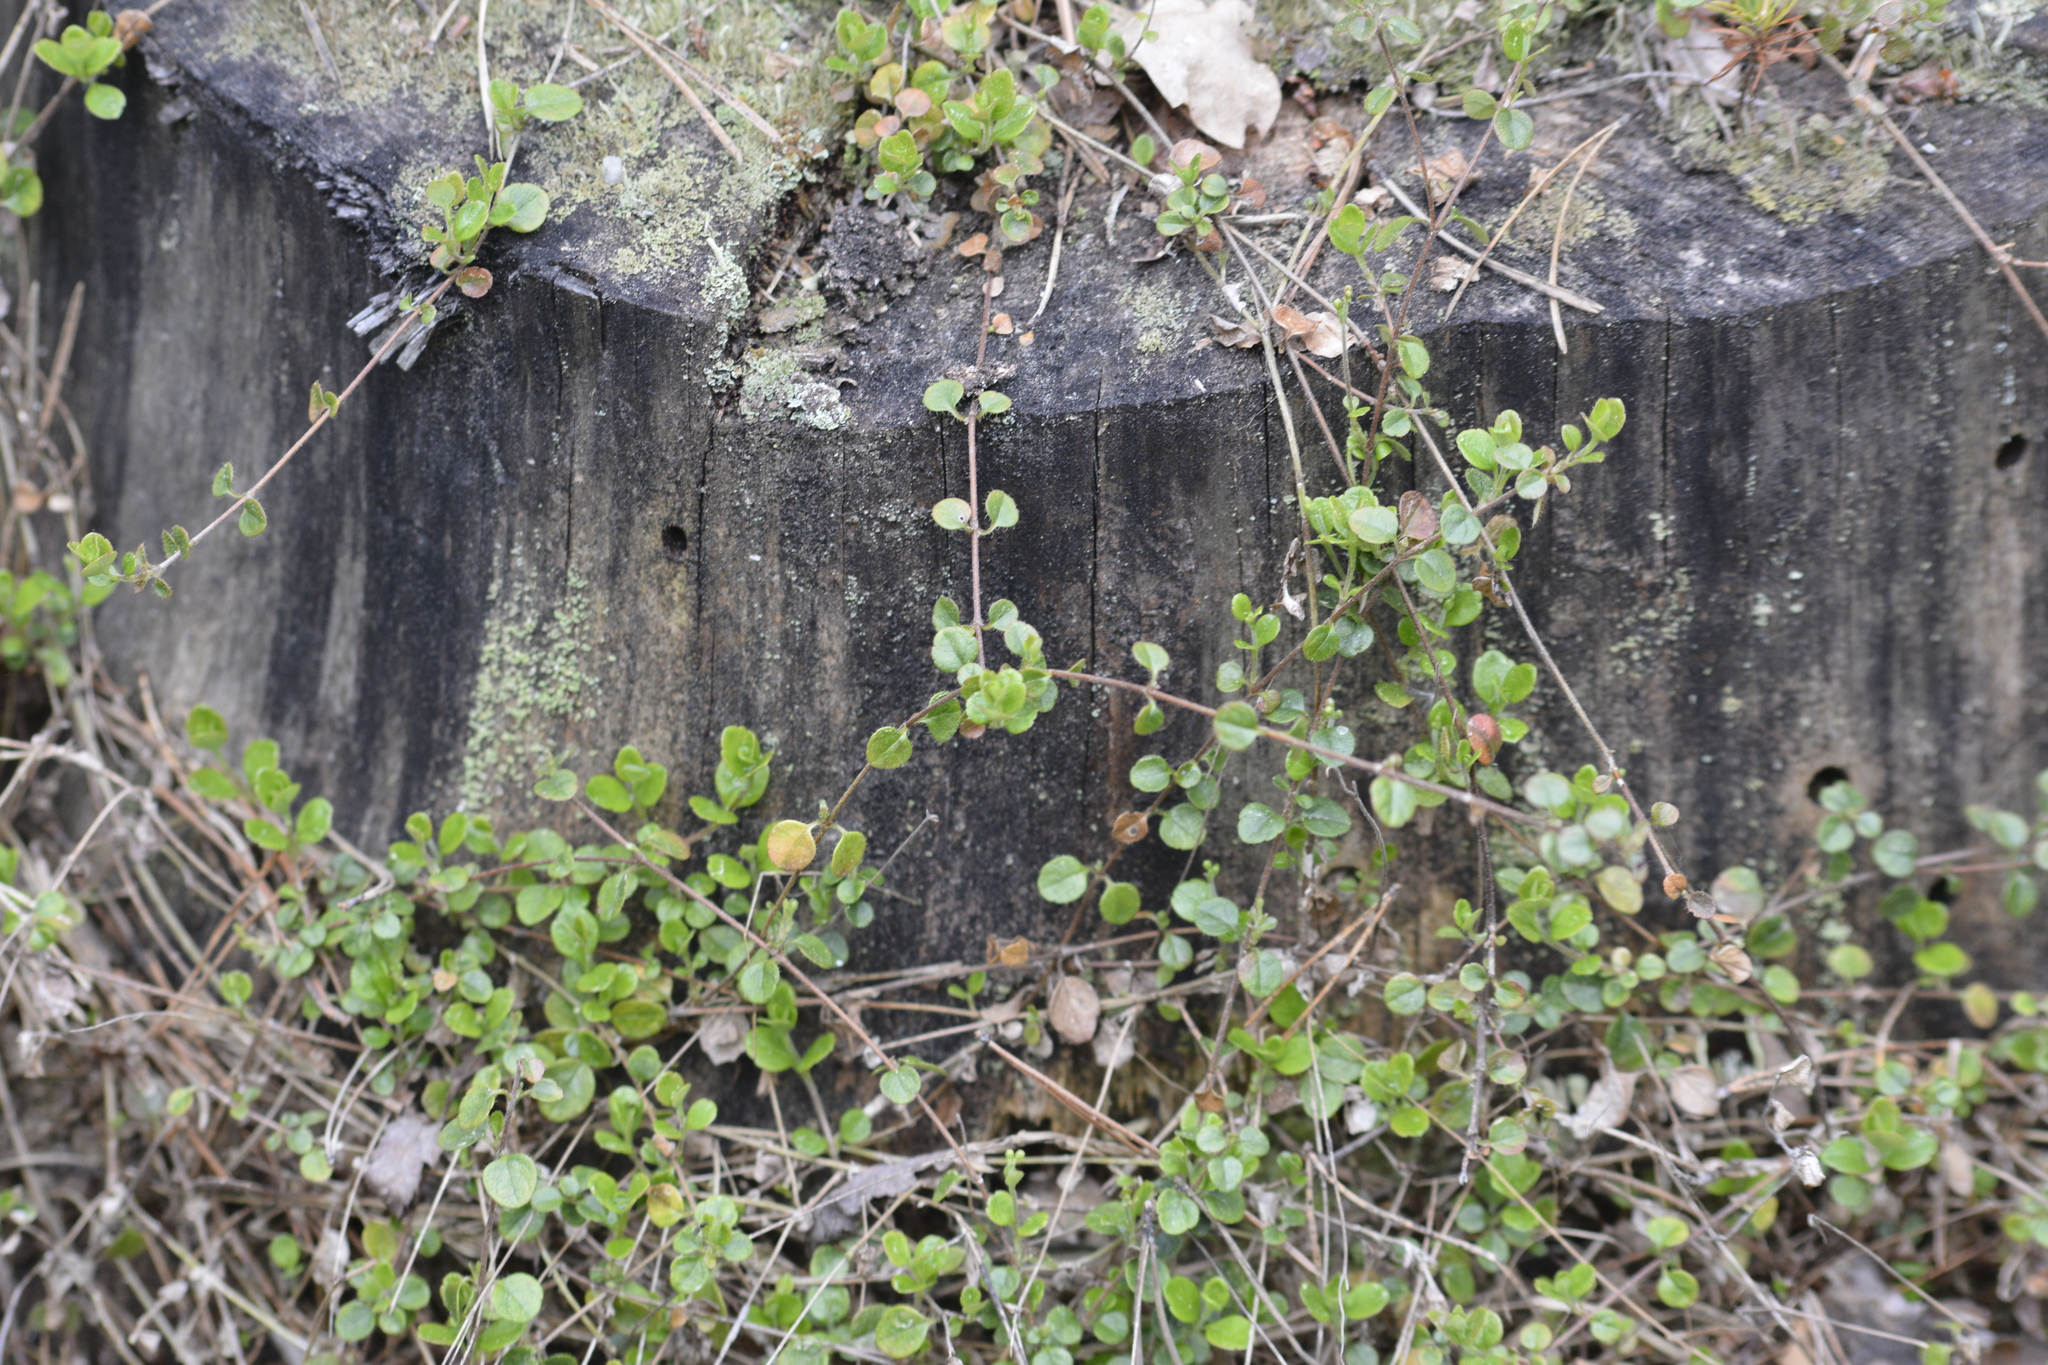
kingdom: Plantae
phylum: Tracheophyta
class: Magnoliopsida
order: Dipsacales
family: Caprifoliaceae
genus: Linnaea
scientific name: Linnaea borealis
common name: Twinflower
